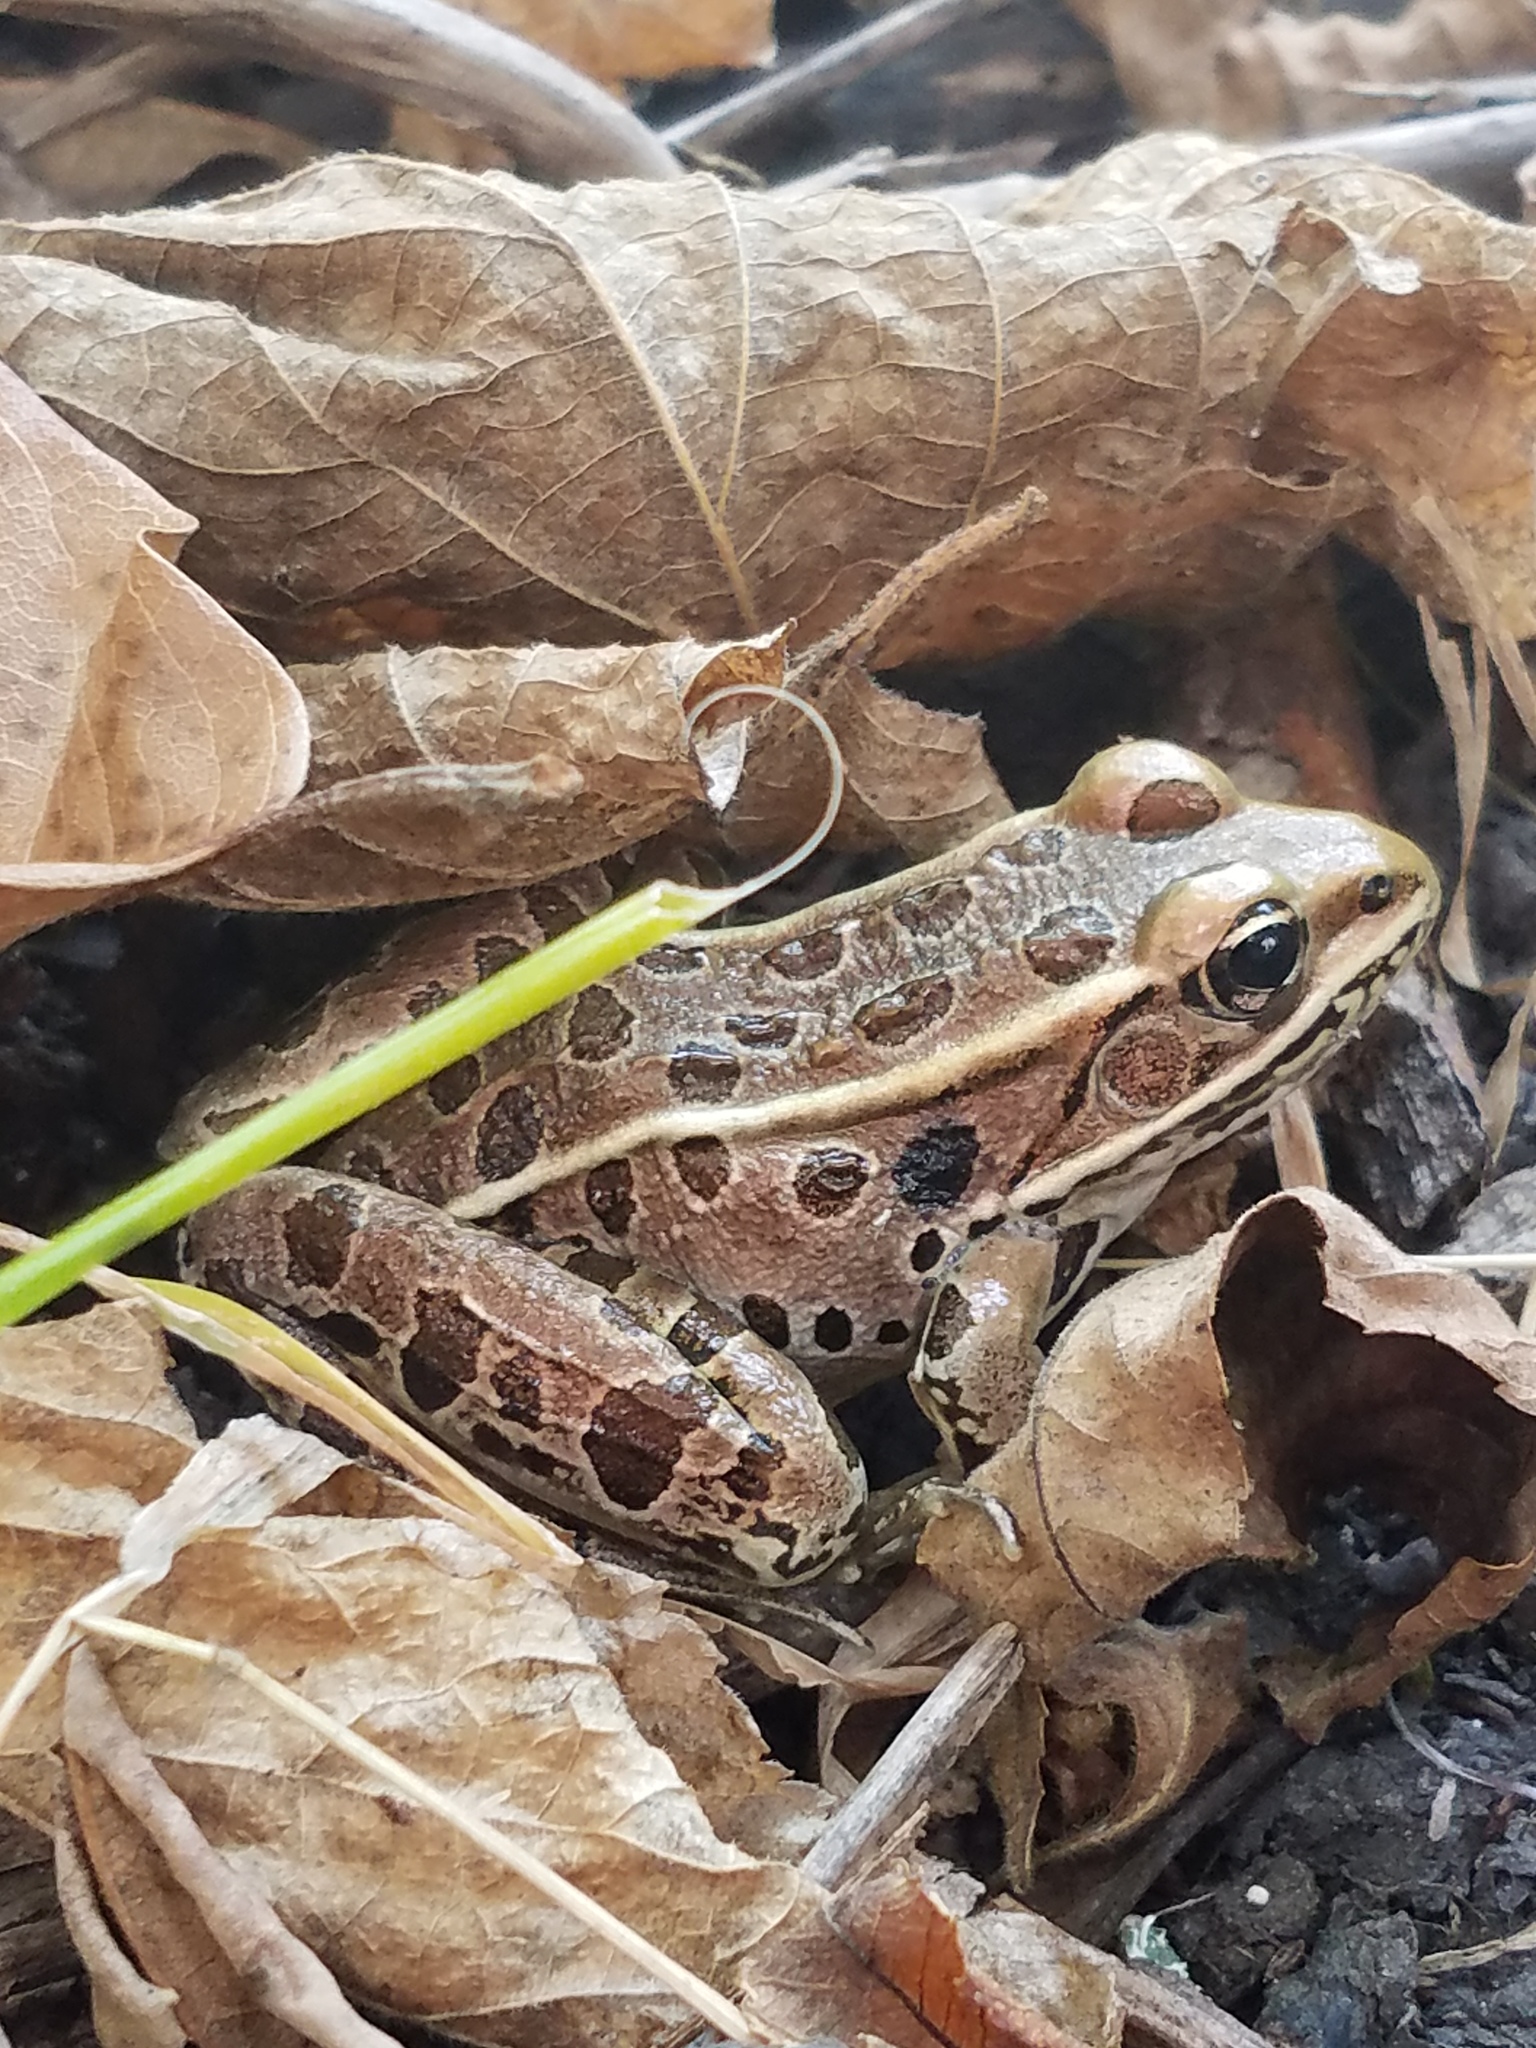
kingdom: Animalia
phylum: Chordata
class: Amphibia
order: Anura
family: Ranidae
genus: Lithobates
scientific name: Lithobates pipiens
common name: Northern leopard frog
